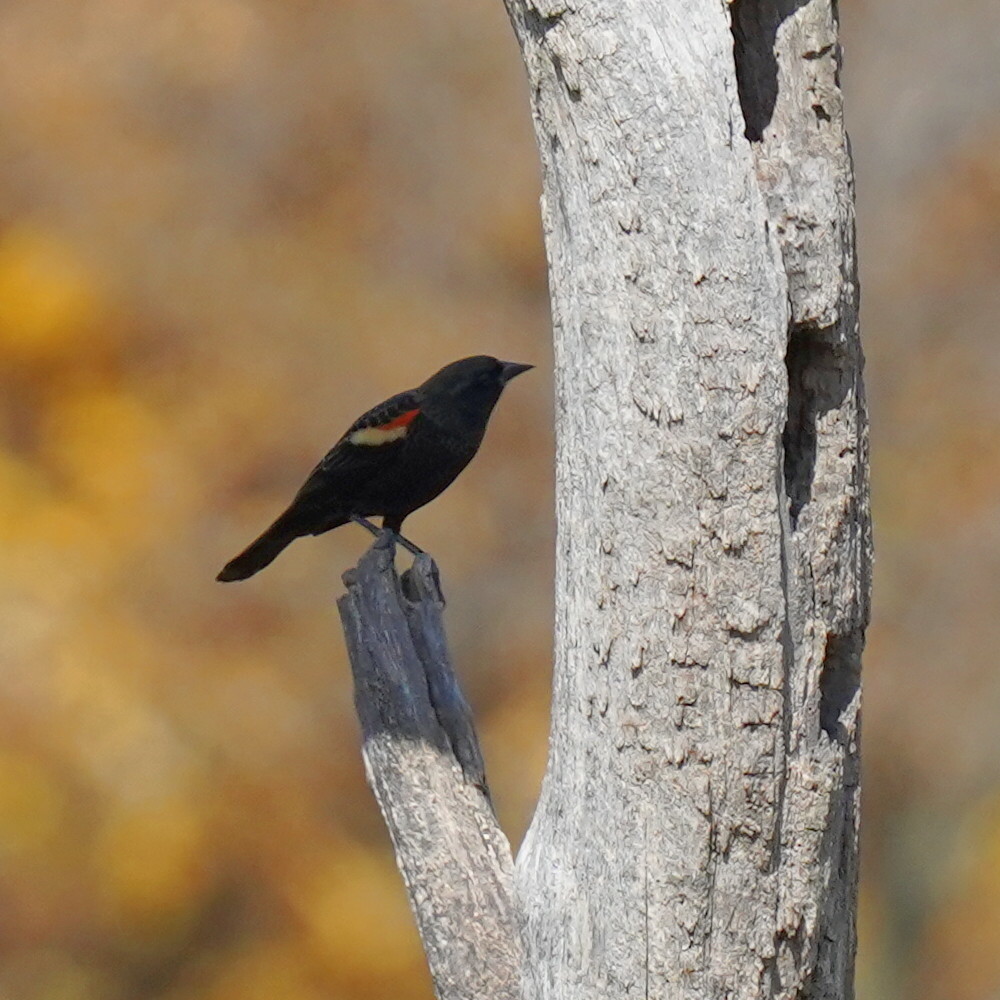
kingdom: Animalia
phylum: Chordata
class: Aves
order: Passeriformes
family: Icteridae
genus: Agelaius
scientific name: Agelaius phoeniceus
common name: Red-winged blackbird
